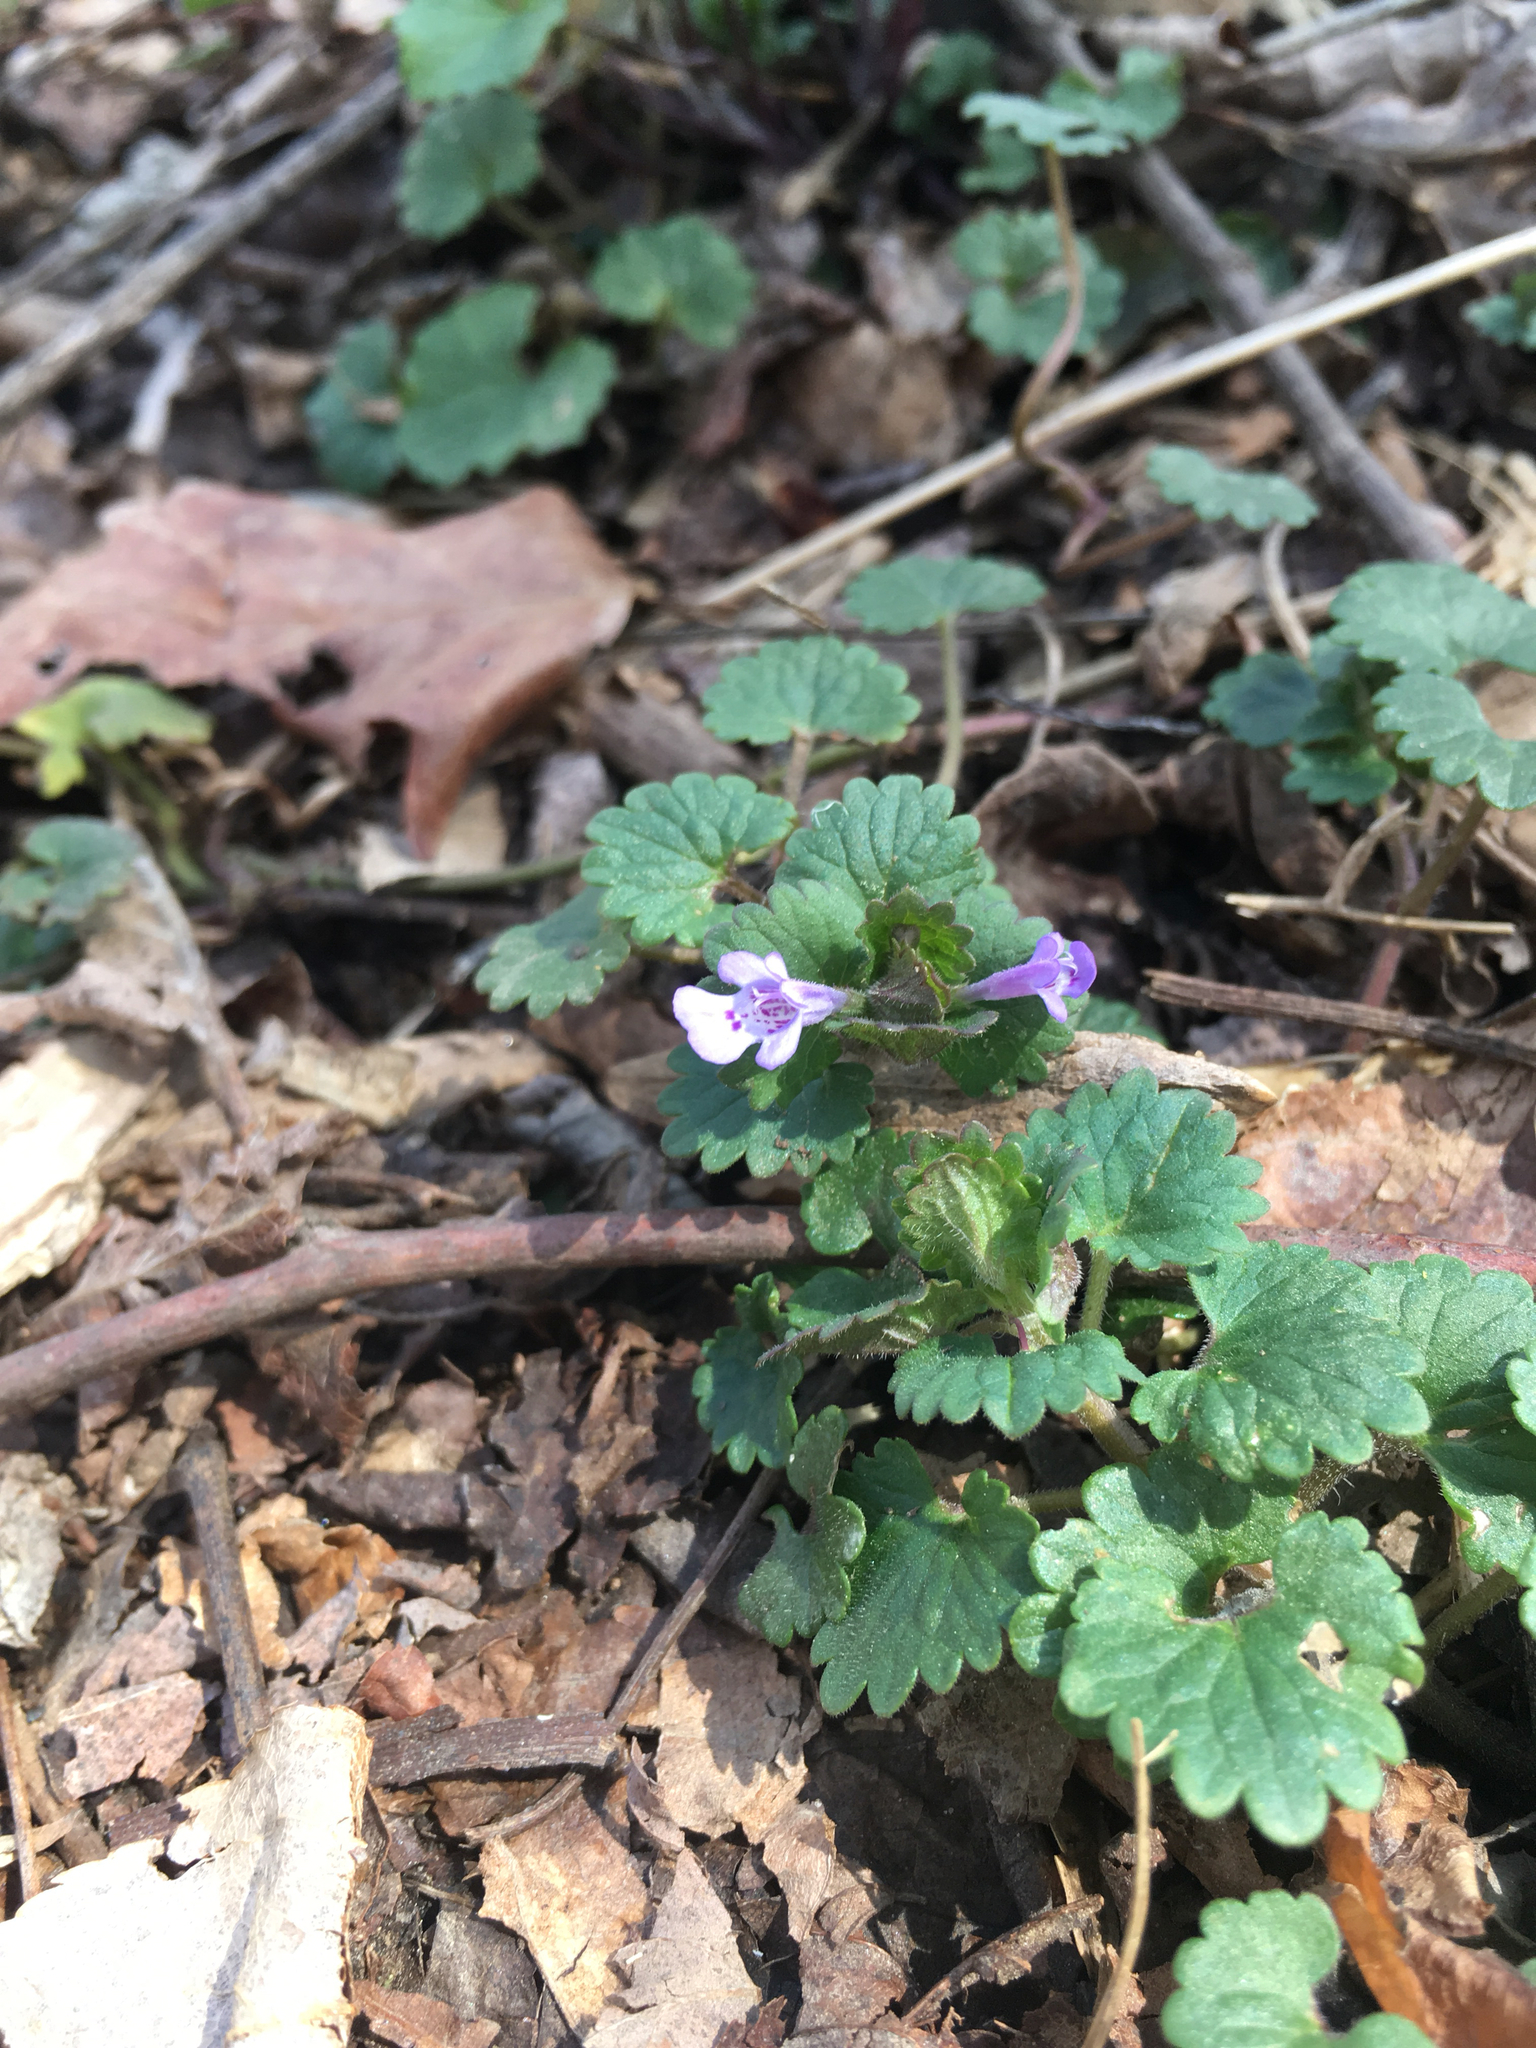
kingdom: Plantae
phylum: Tracheophyta
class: Magnoliopsida
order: Lamiales
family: Lamiaceae
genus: Glechoma
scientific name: Glechoma hederacea
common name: Ground ivy
